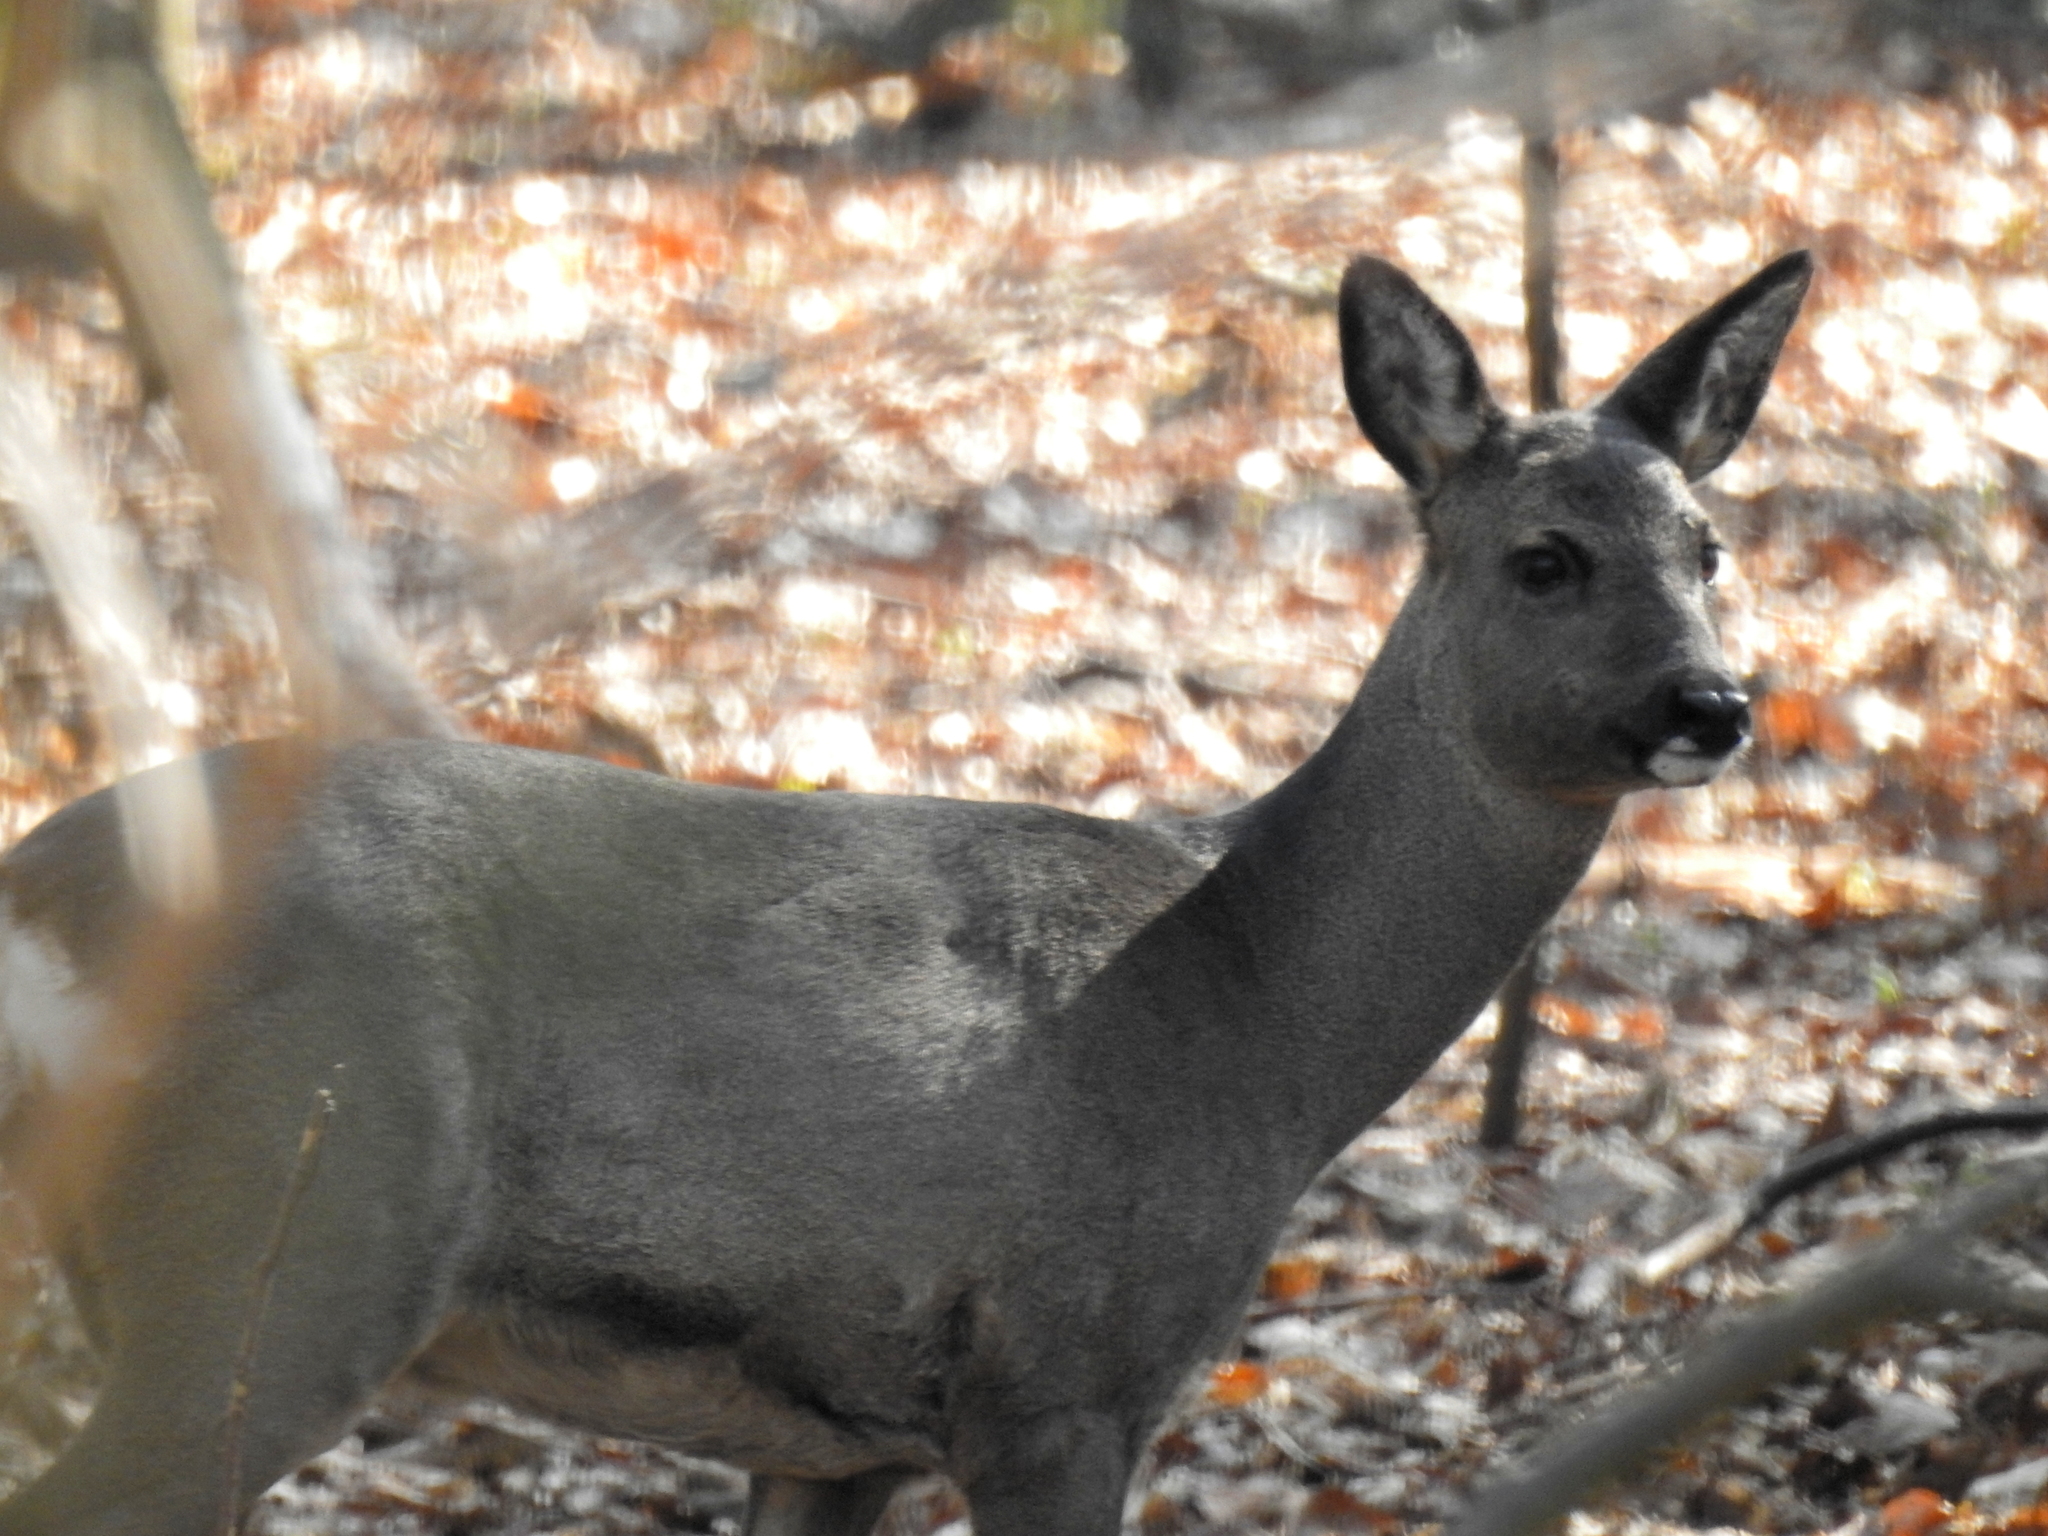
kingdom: Animalia
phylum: Chordata
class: Mammalia
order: Artiodactyla
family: Cervidae
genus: Capreolus
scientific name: Capreolus capreolus
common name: Western roe deer
